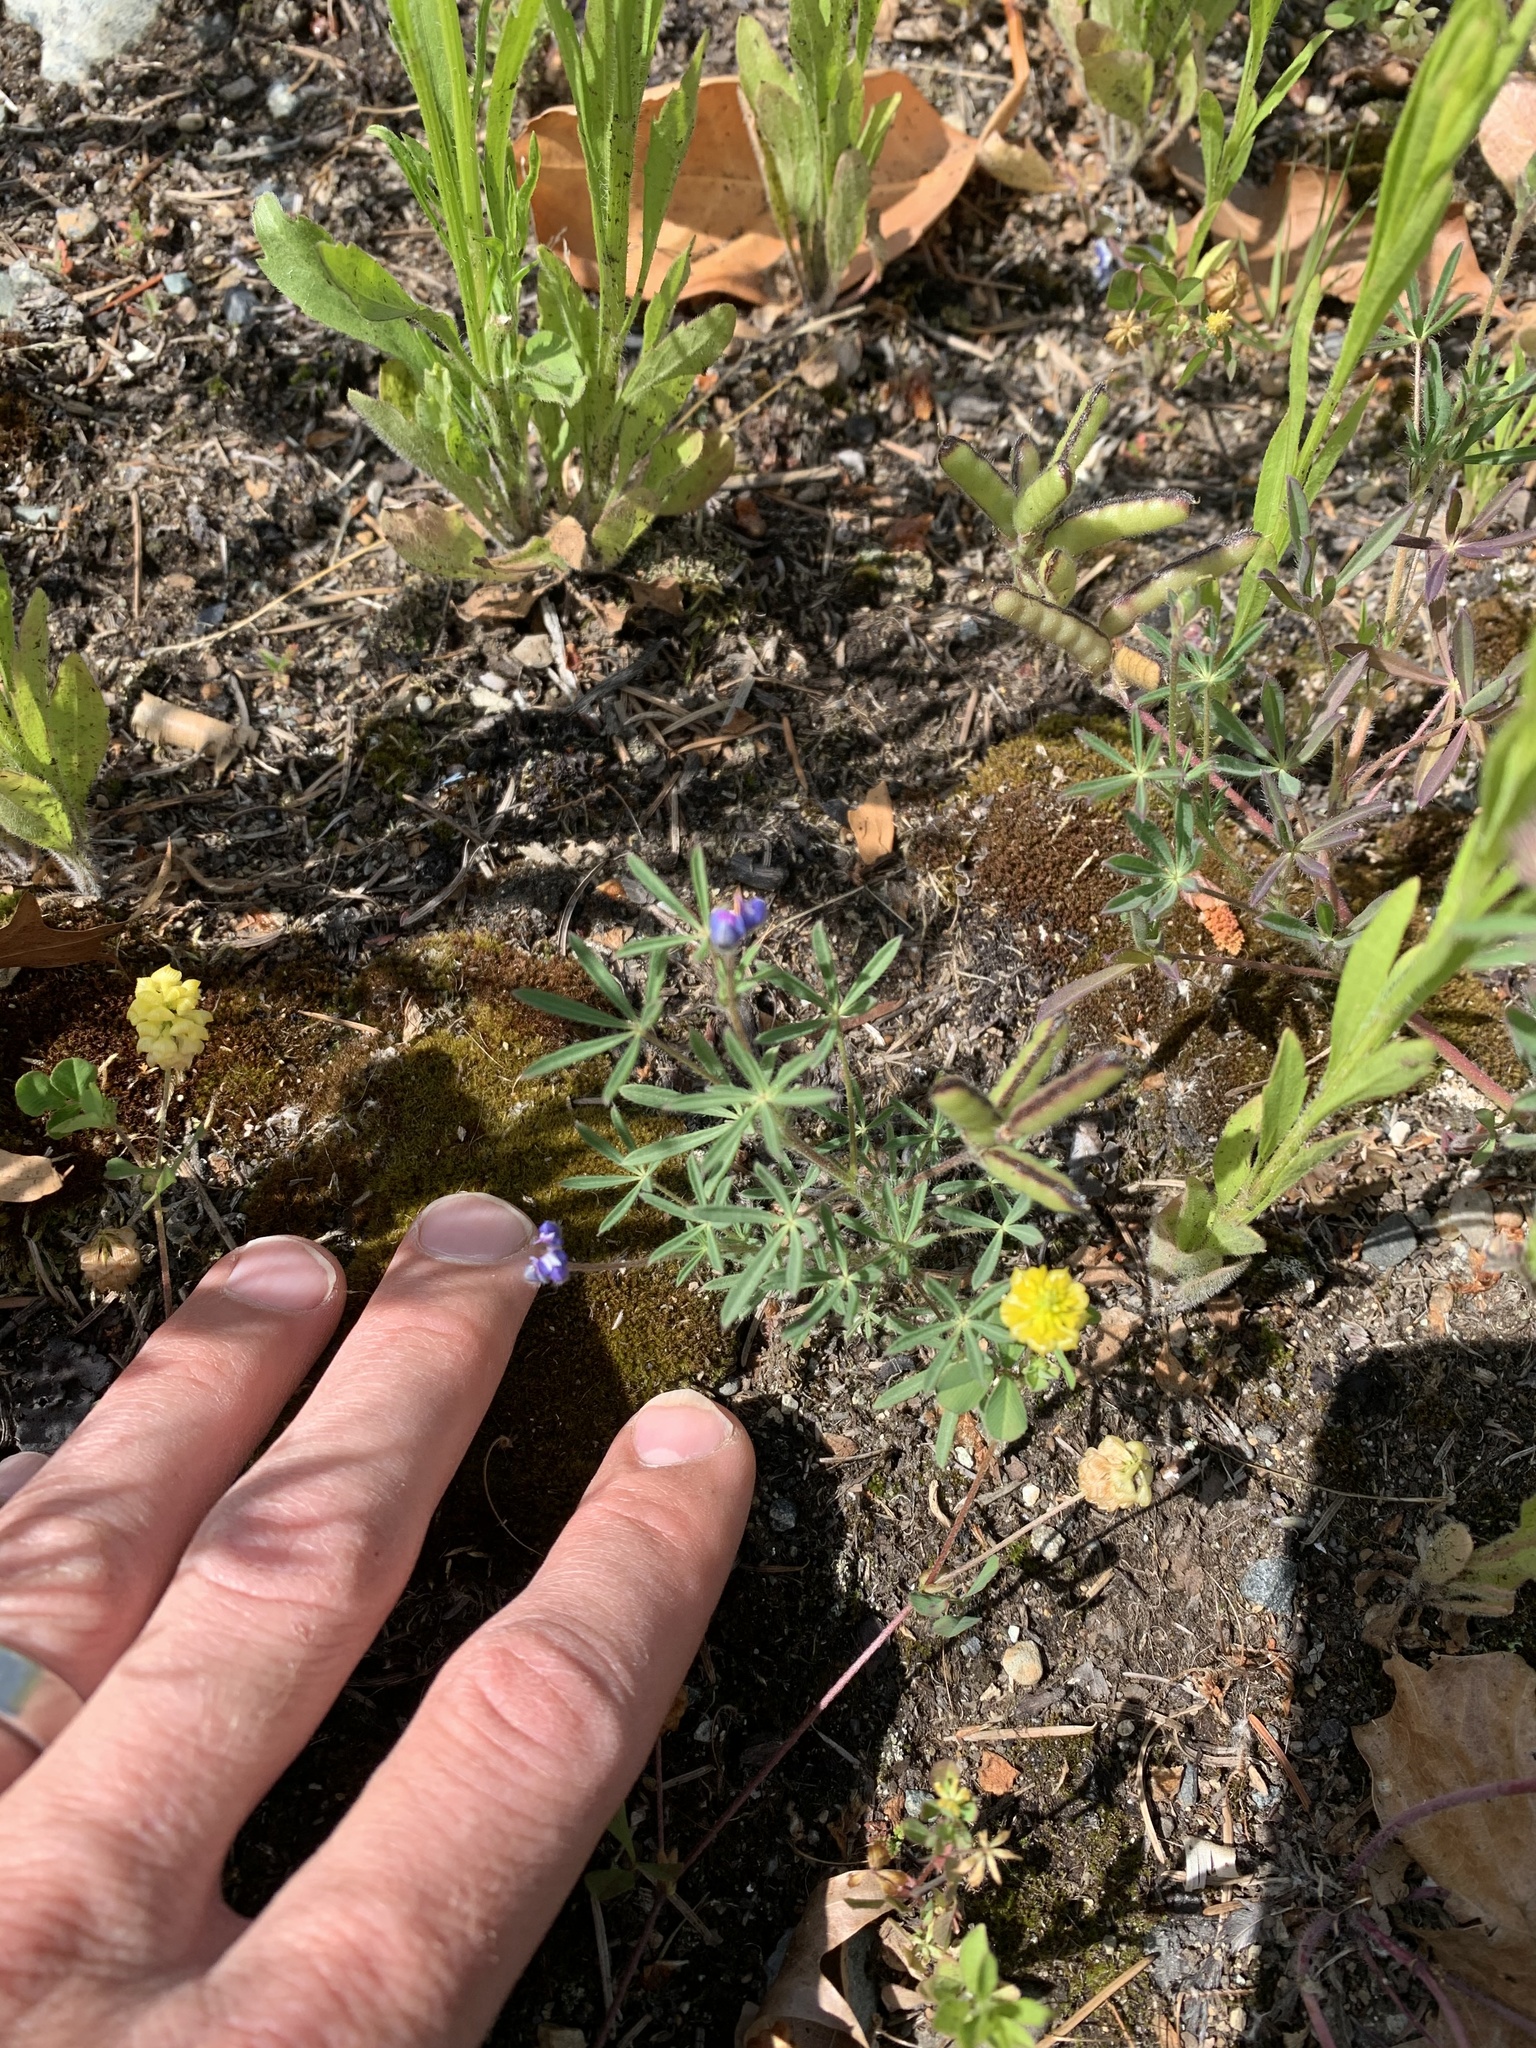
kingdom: Plantae
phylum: Tracheophyta
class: Magnoliopsida
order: Fabales
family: Fabaceae
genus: Lupinus
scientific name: Lupinus bicolor
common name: Miniature lupine
